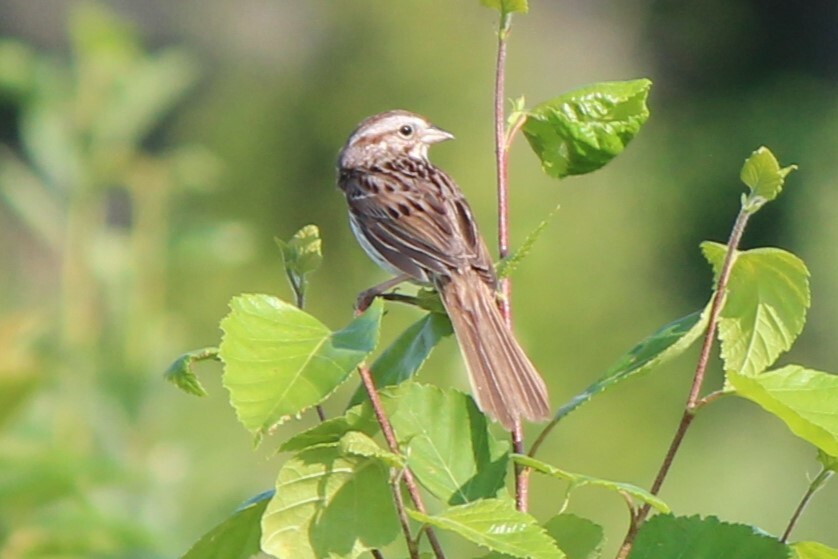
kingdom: Animalia
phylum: Chordata
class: Aves
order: Passeriformes
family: Passerellidae
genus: Melospiza
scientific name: Melospiza melodia
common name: Song sparrow
